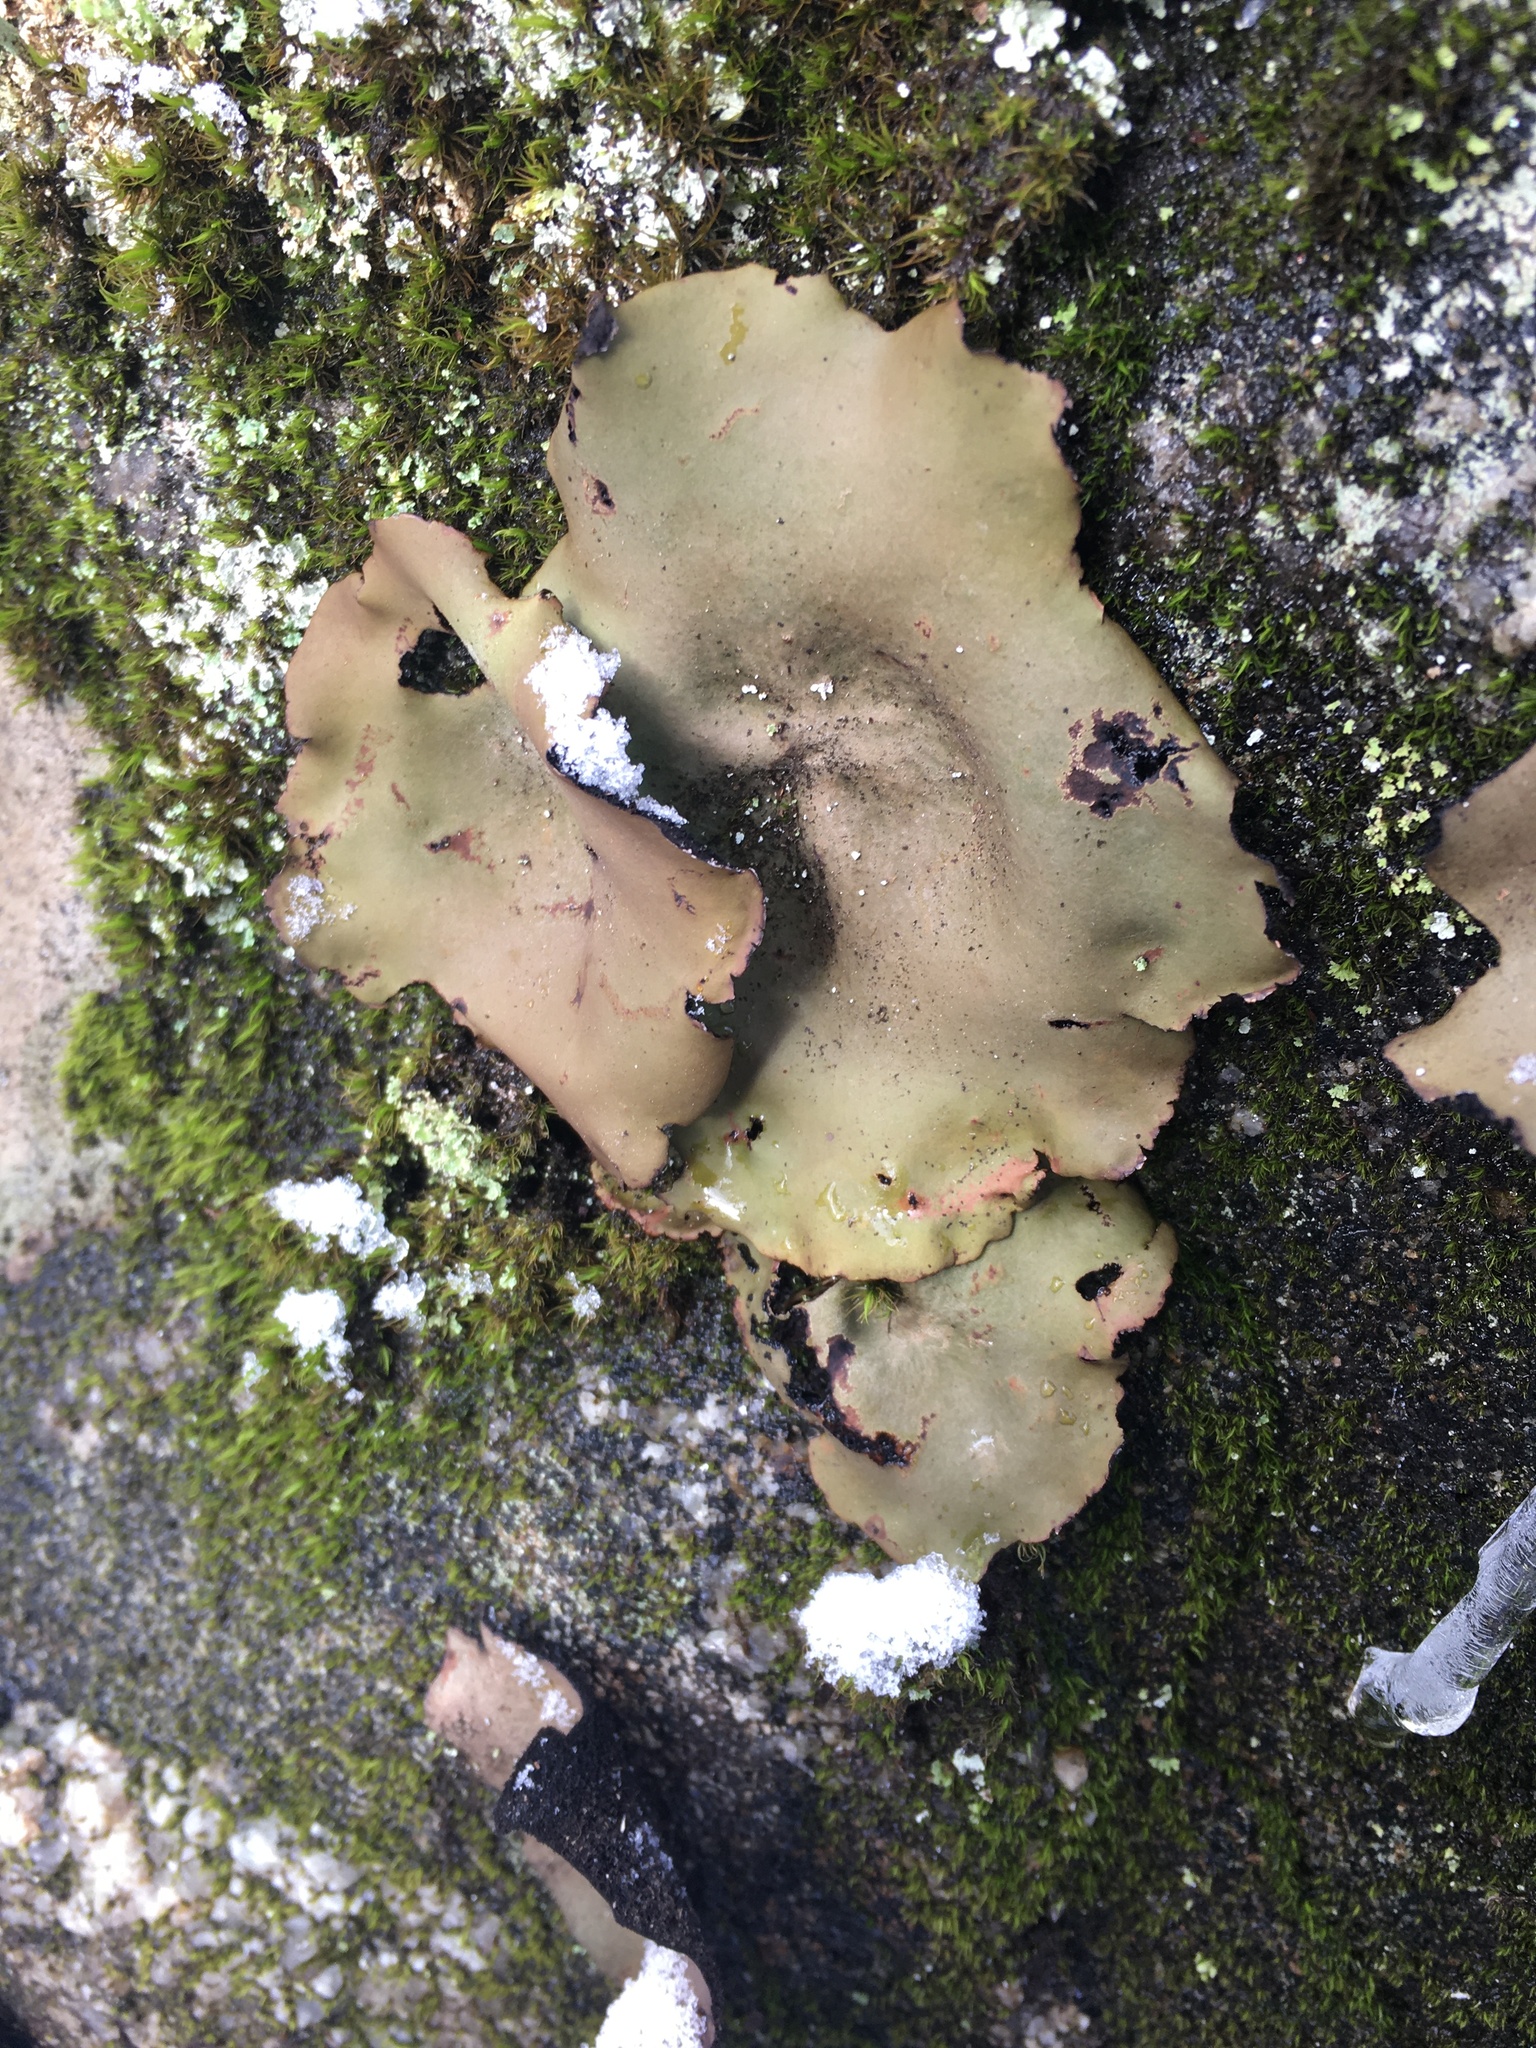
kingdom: Fungi
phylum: Ascomycota
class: Lecanoromycetes
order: Umbilicariales
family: Umbilicariaceae
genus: Umbilicaria
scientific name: Umbilicaria mammulata
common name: Smooth rock tripe
